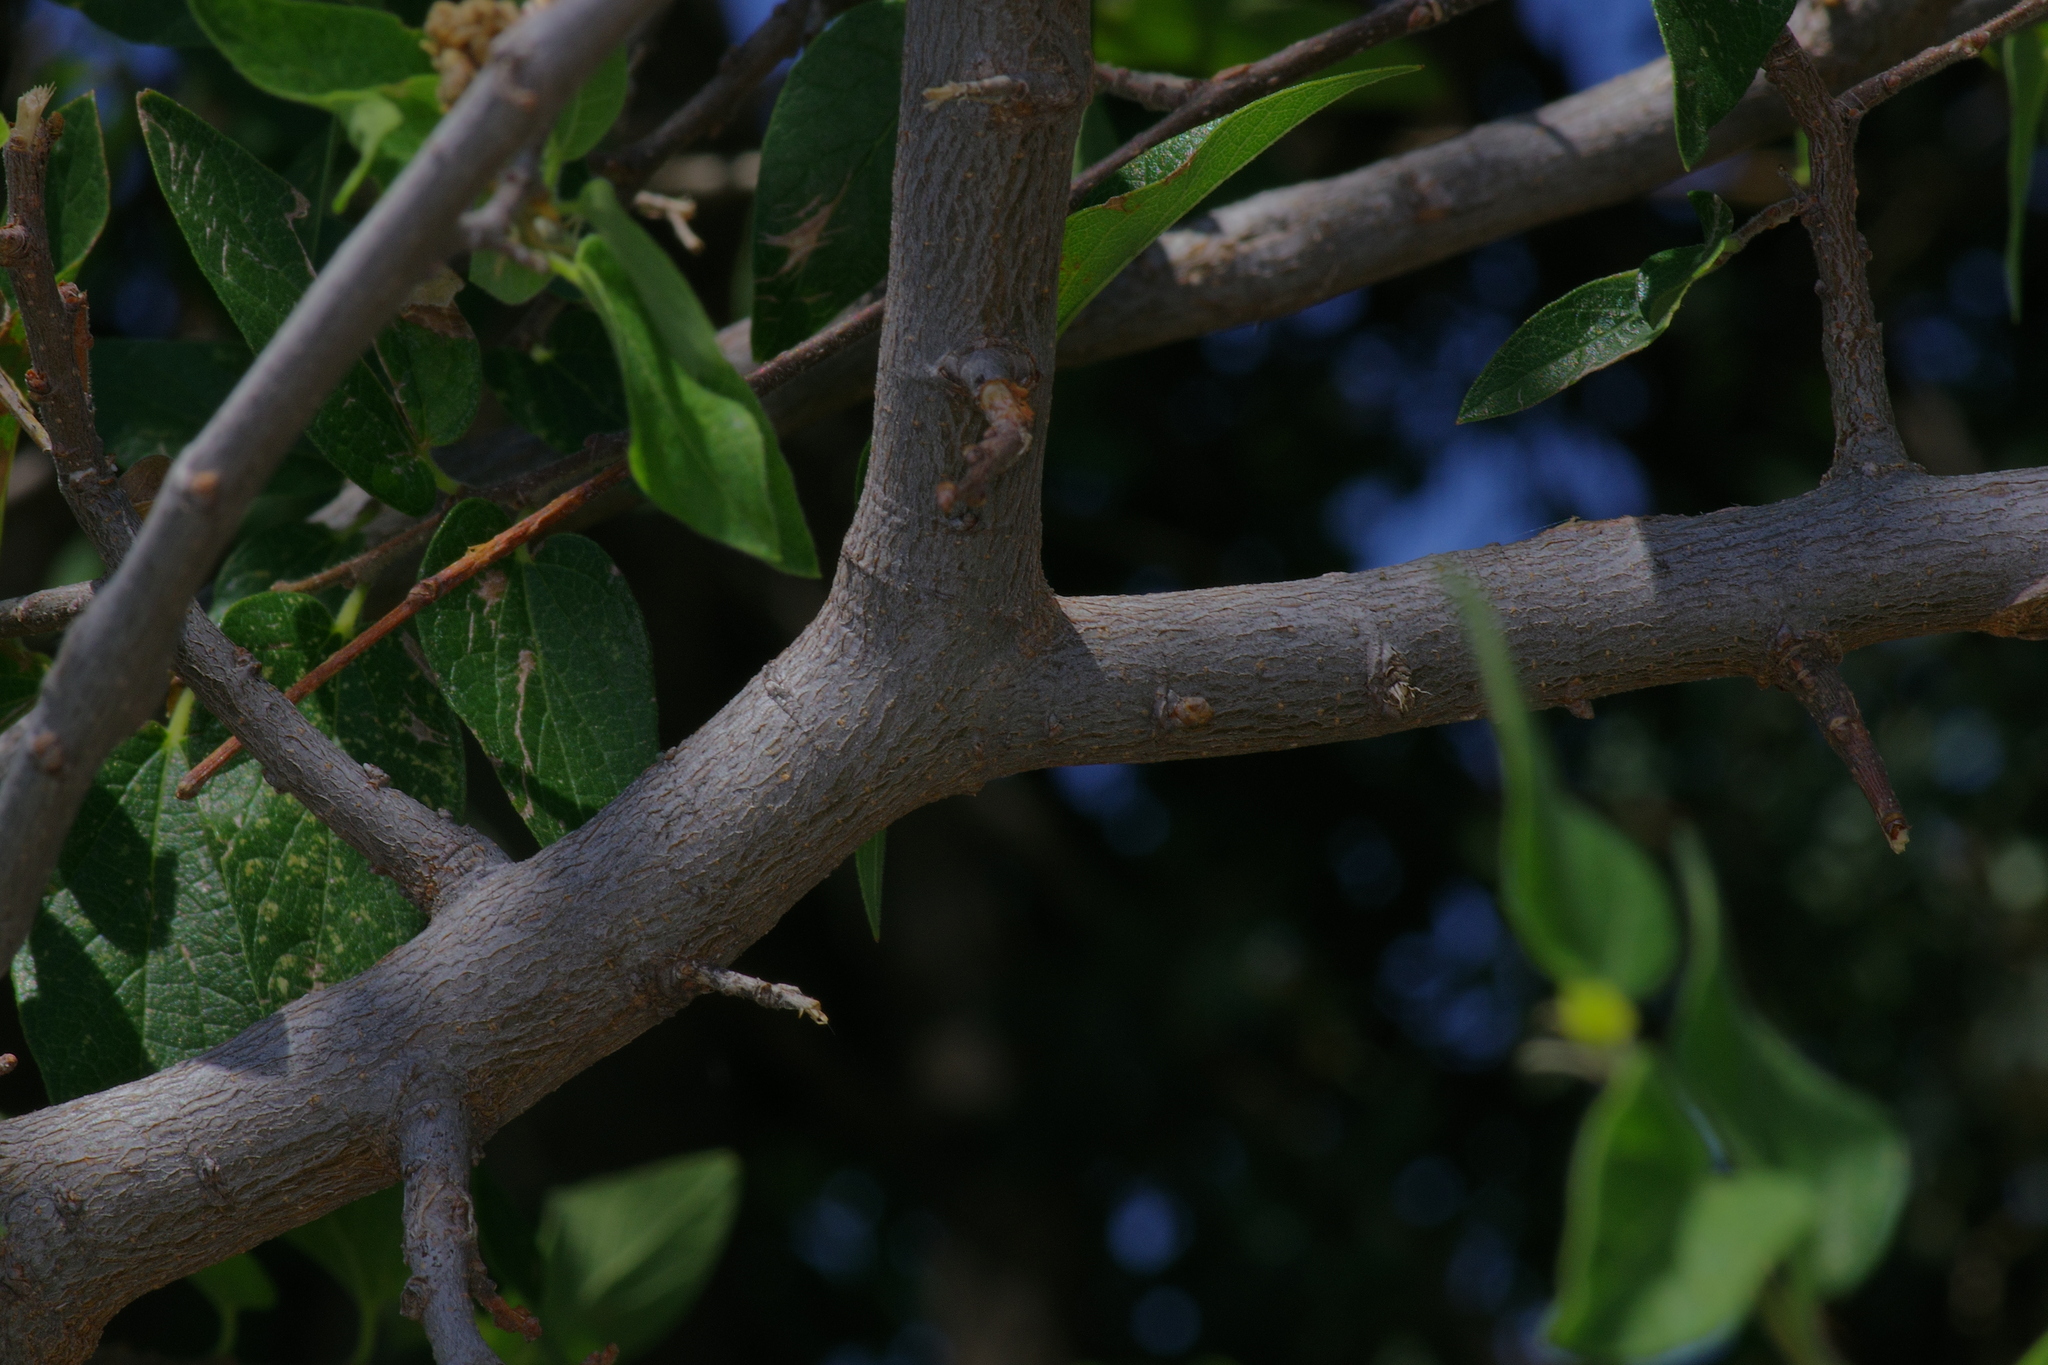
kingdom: Plantae
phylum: Tracheophyta
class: Magnoliopsida
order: Rosales
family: Cannabaceae
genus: Celtis
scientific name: Celtis reticulata
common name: Netleaf hackberry
